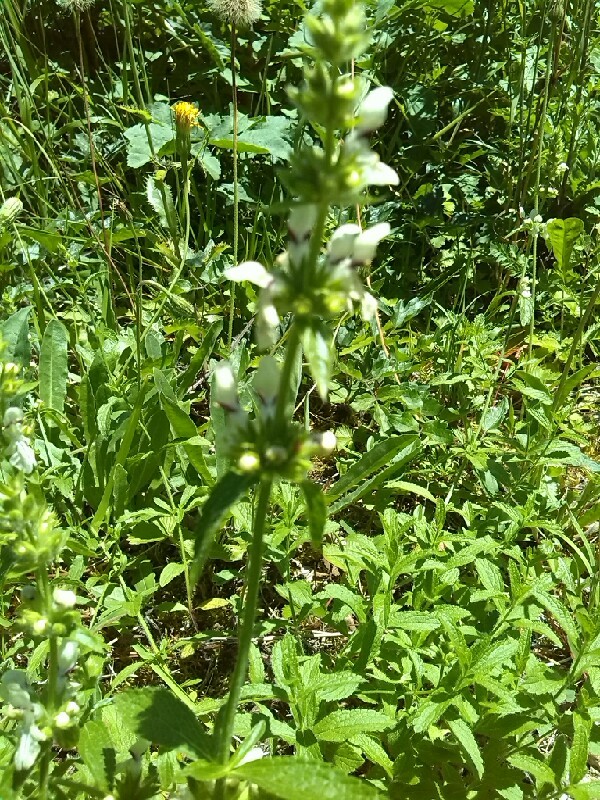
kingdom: Plantae
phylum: Tracheophyta
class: Magnoliopsida
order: Lamiales
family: Lamiaceae
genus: Stachys
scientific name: Stachys recta
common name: Perennial yellow-woundwort
